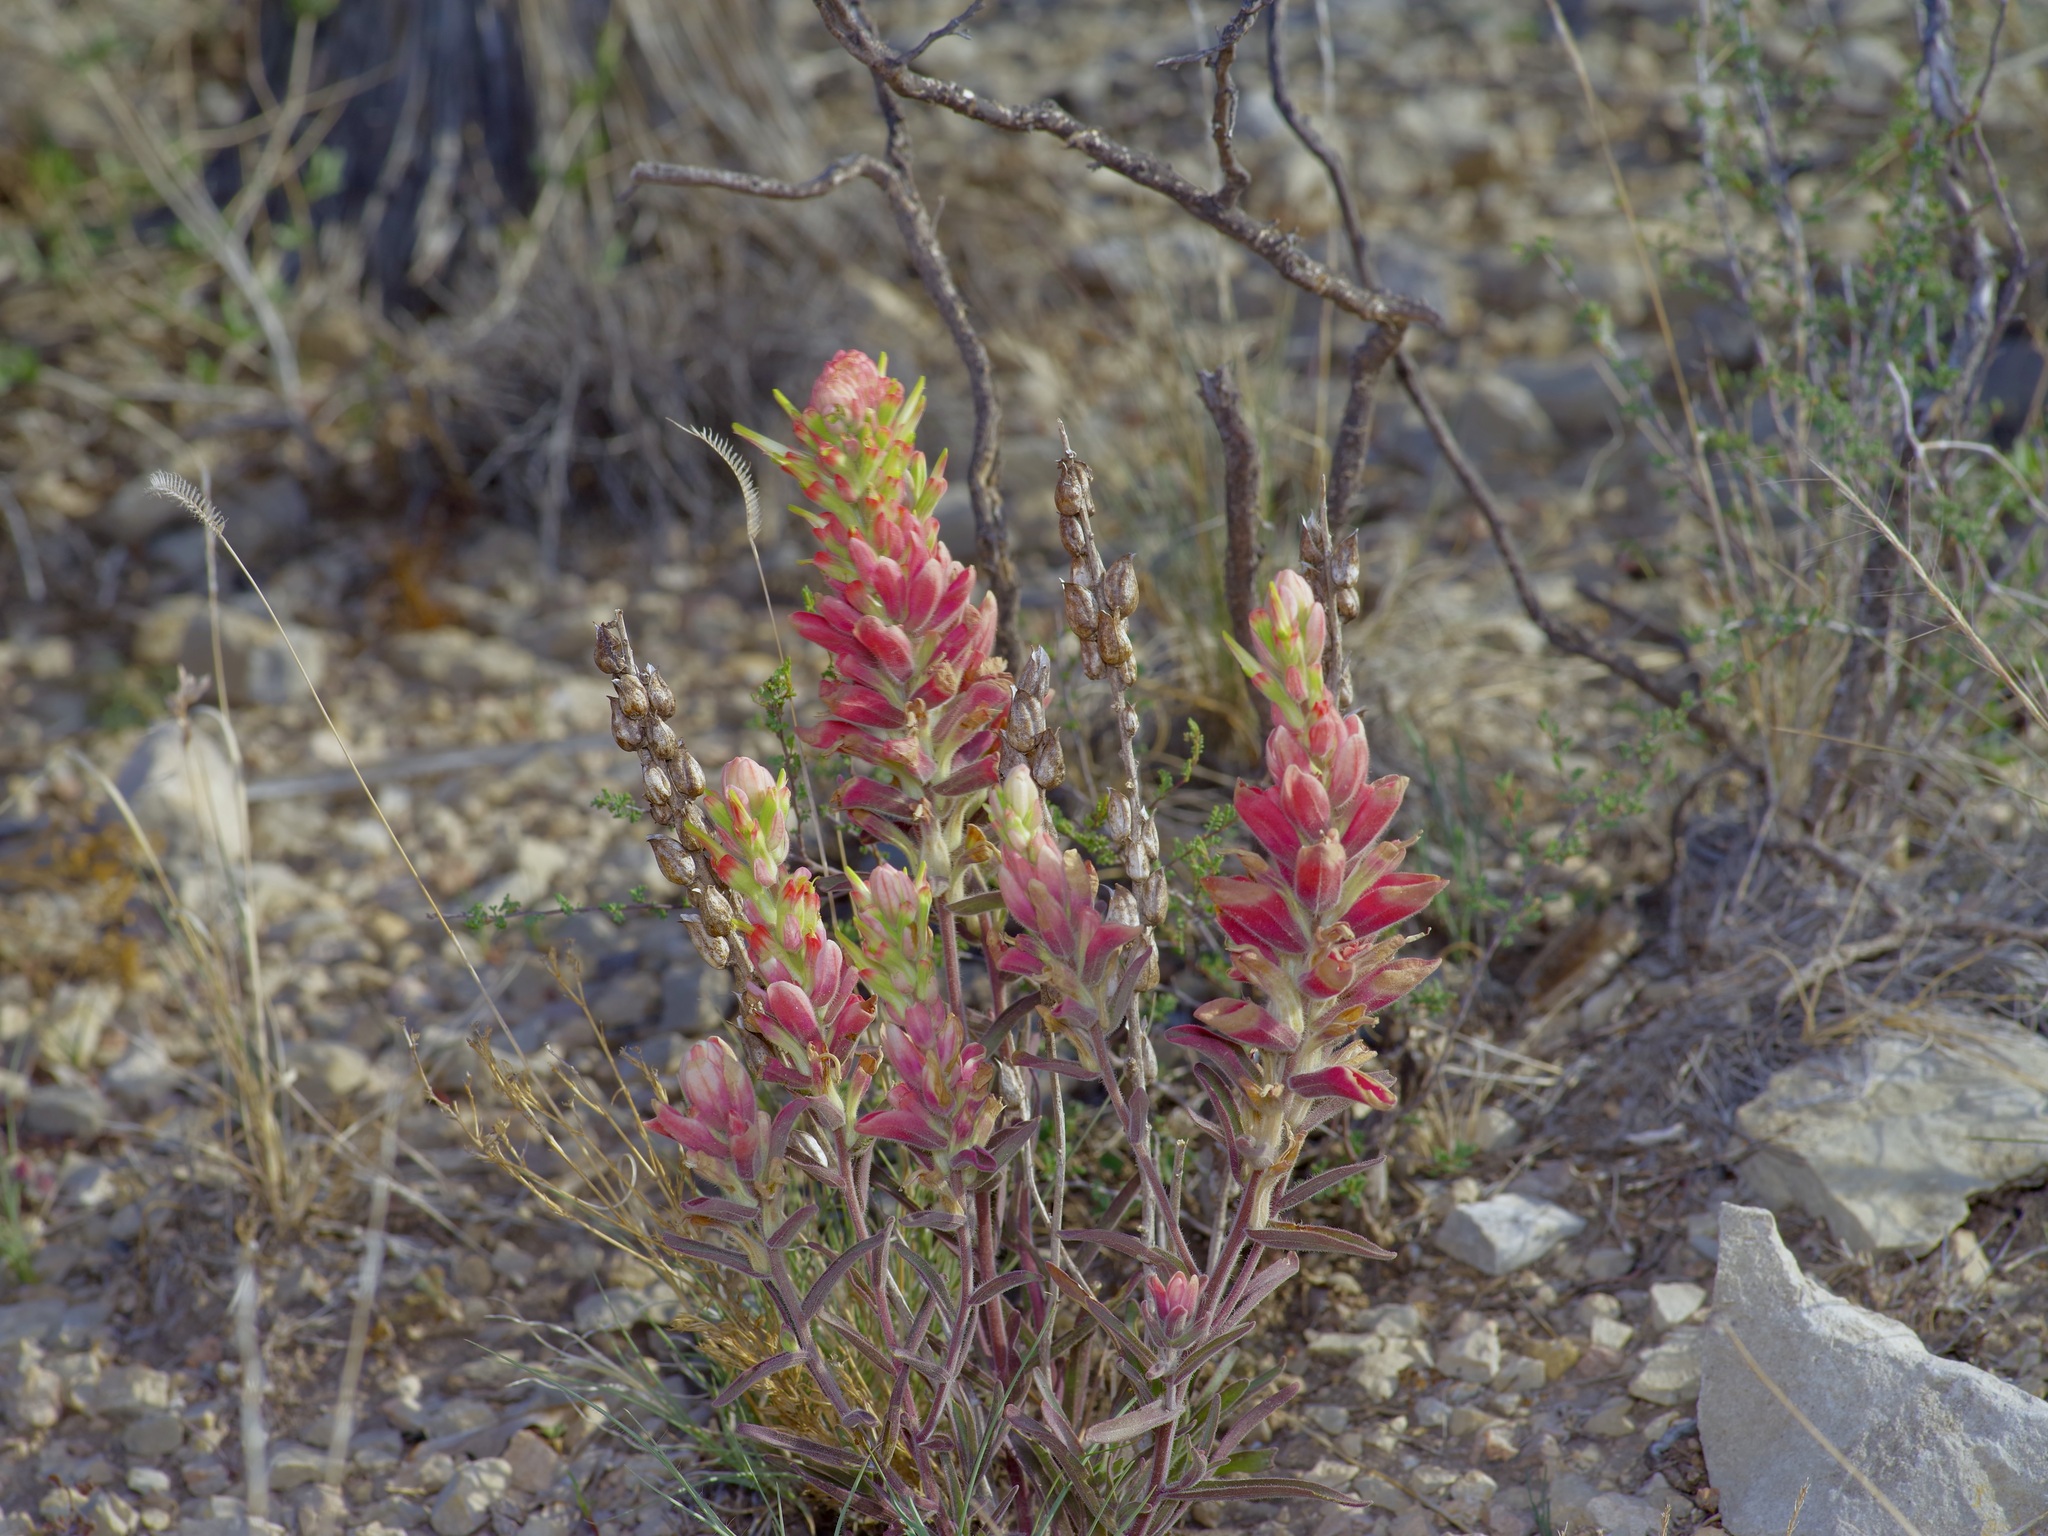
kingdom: Plantae
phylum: Tracheophyta
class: Magnoliopsida
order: Lamiales
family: Orobanchaceae
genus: Castilleja
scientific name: Castilleja rigida
